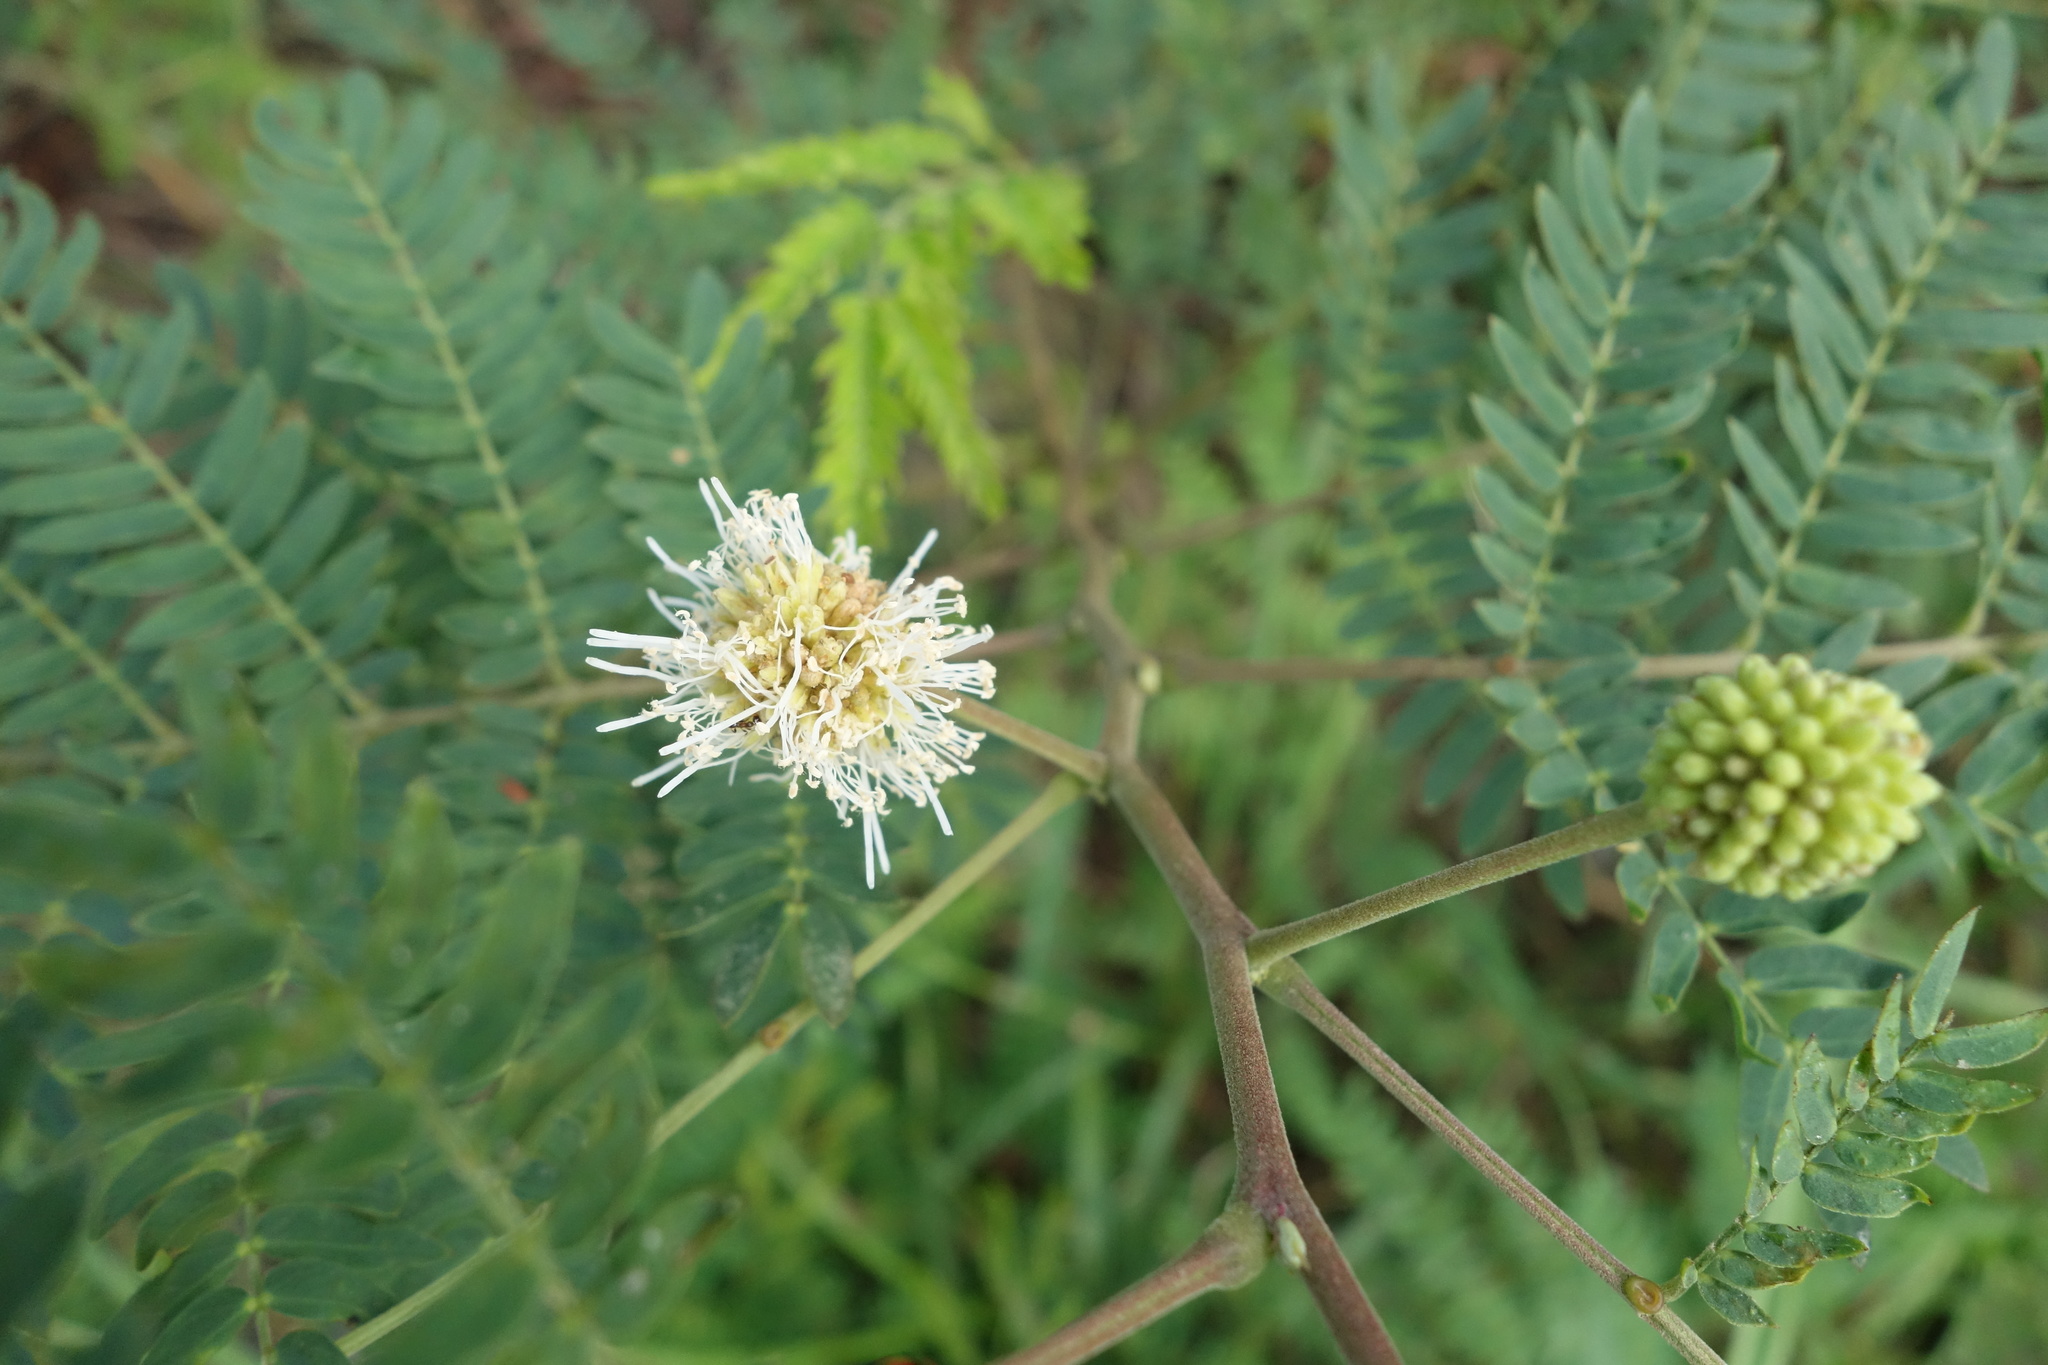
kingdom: Plantae
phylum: Tracheophyta
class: Magnoliopsida
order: Fabales
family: Fabaceae
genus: Leucaena
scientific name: Leucaena leucocephala
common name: White leadtree
